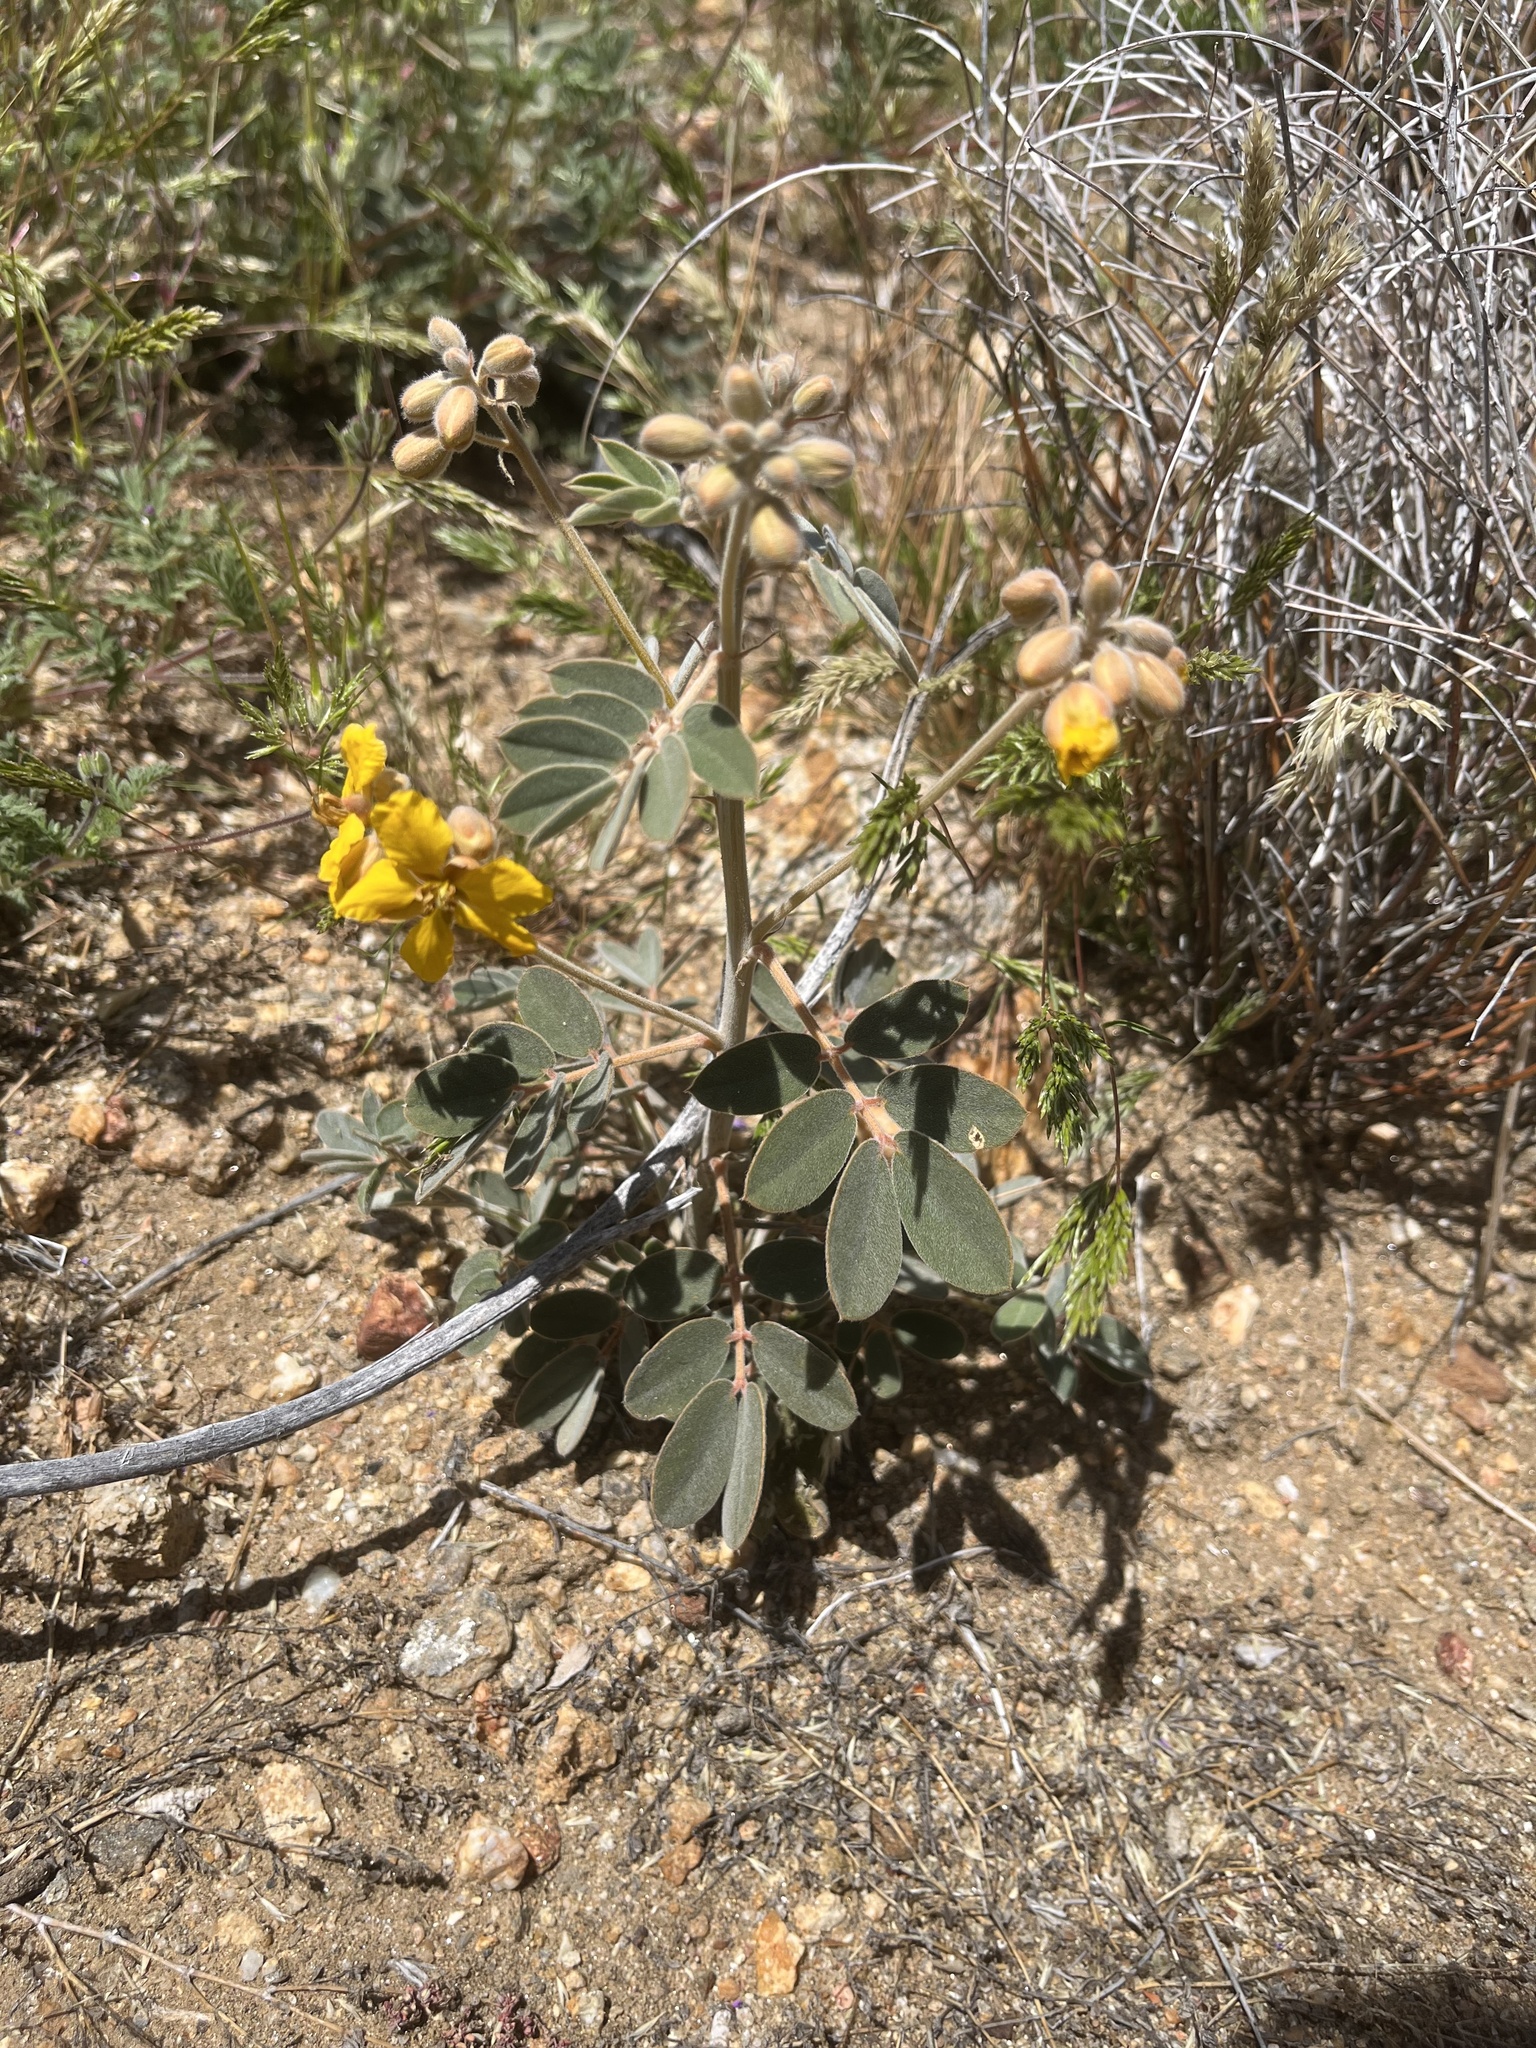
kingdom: Plantae
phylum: Tracheophyta
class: Magnoliopsida
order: Fabales
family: Fabaceae
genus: Senna
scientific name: Senna covesii
